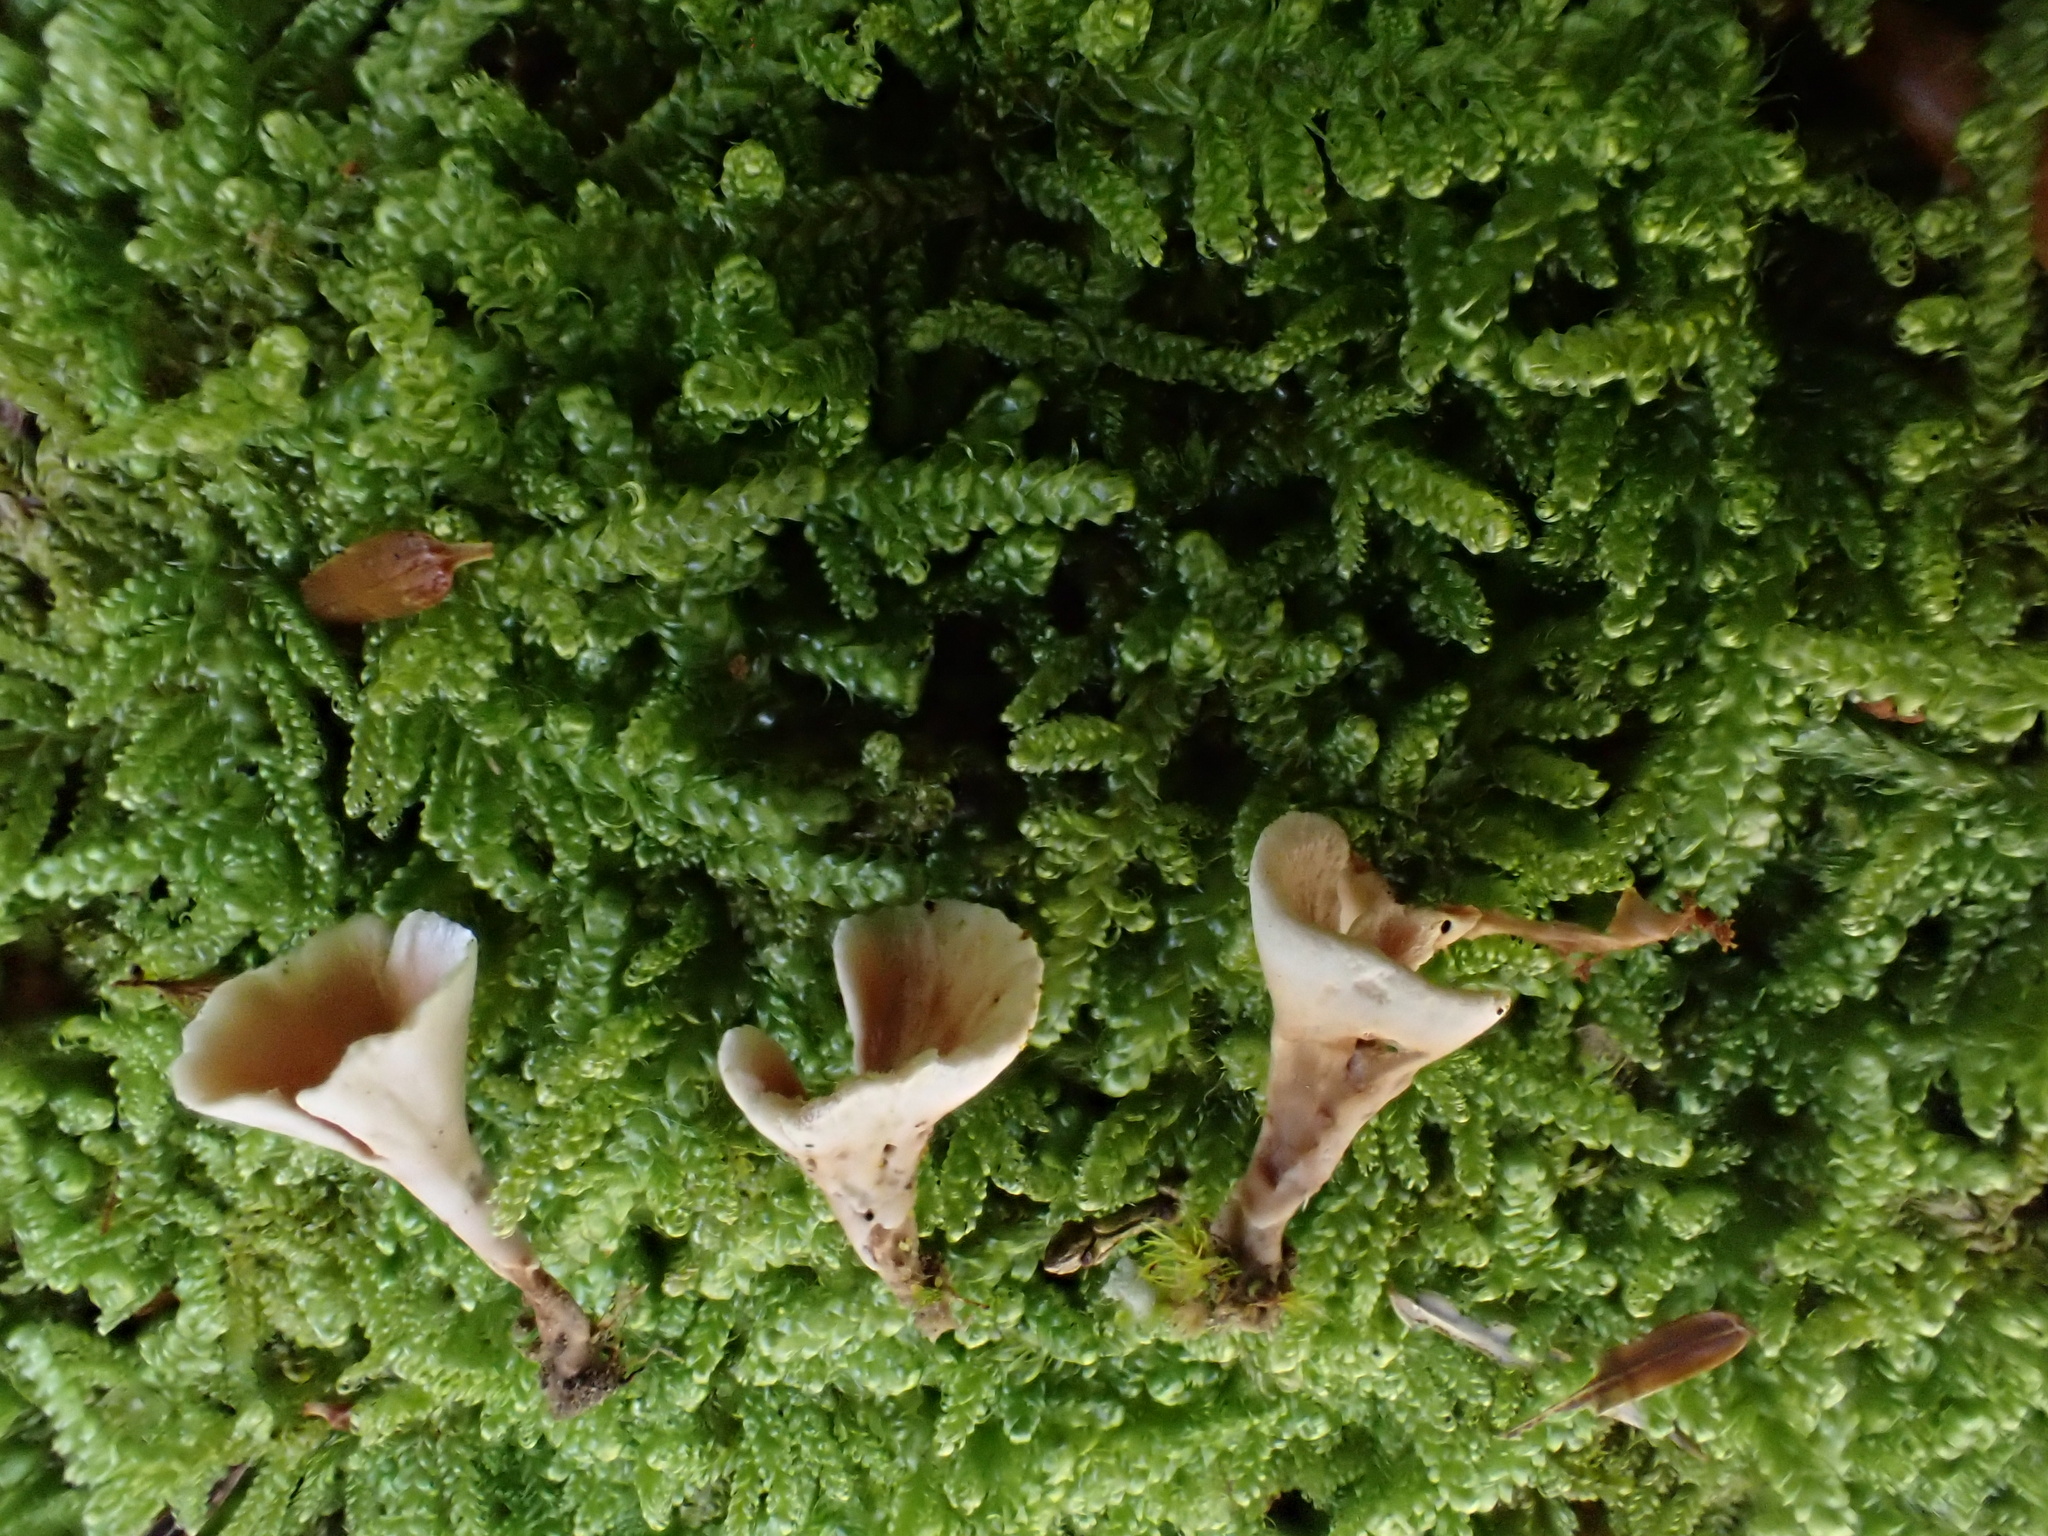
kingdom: Fungi
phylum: Basidiomycota
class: Agaricomycetes
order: Stereopsidales
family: Stereopsidaceae
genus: Stereopsis
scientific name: Stereopsis hiscens
